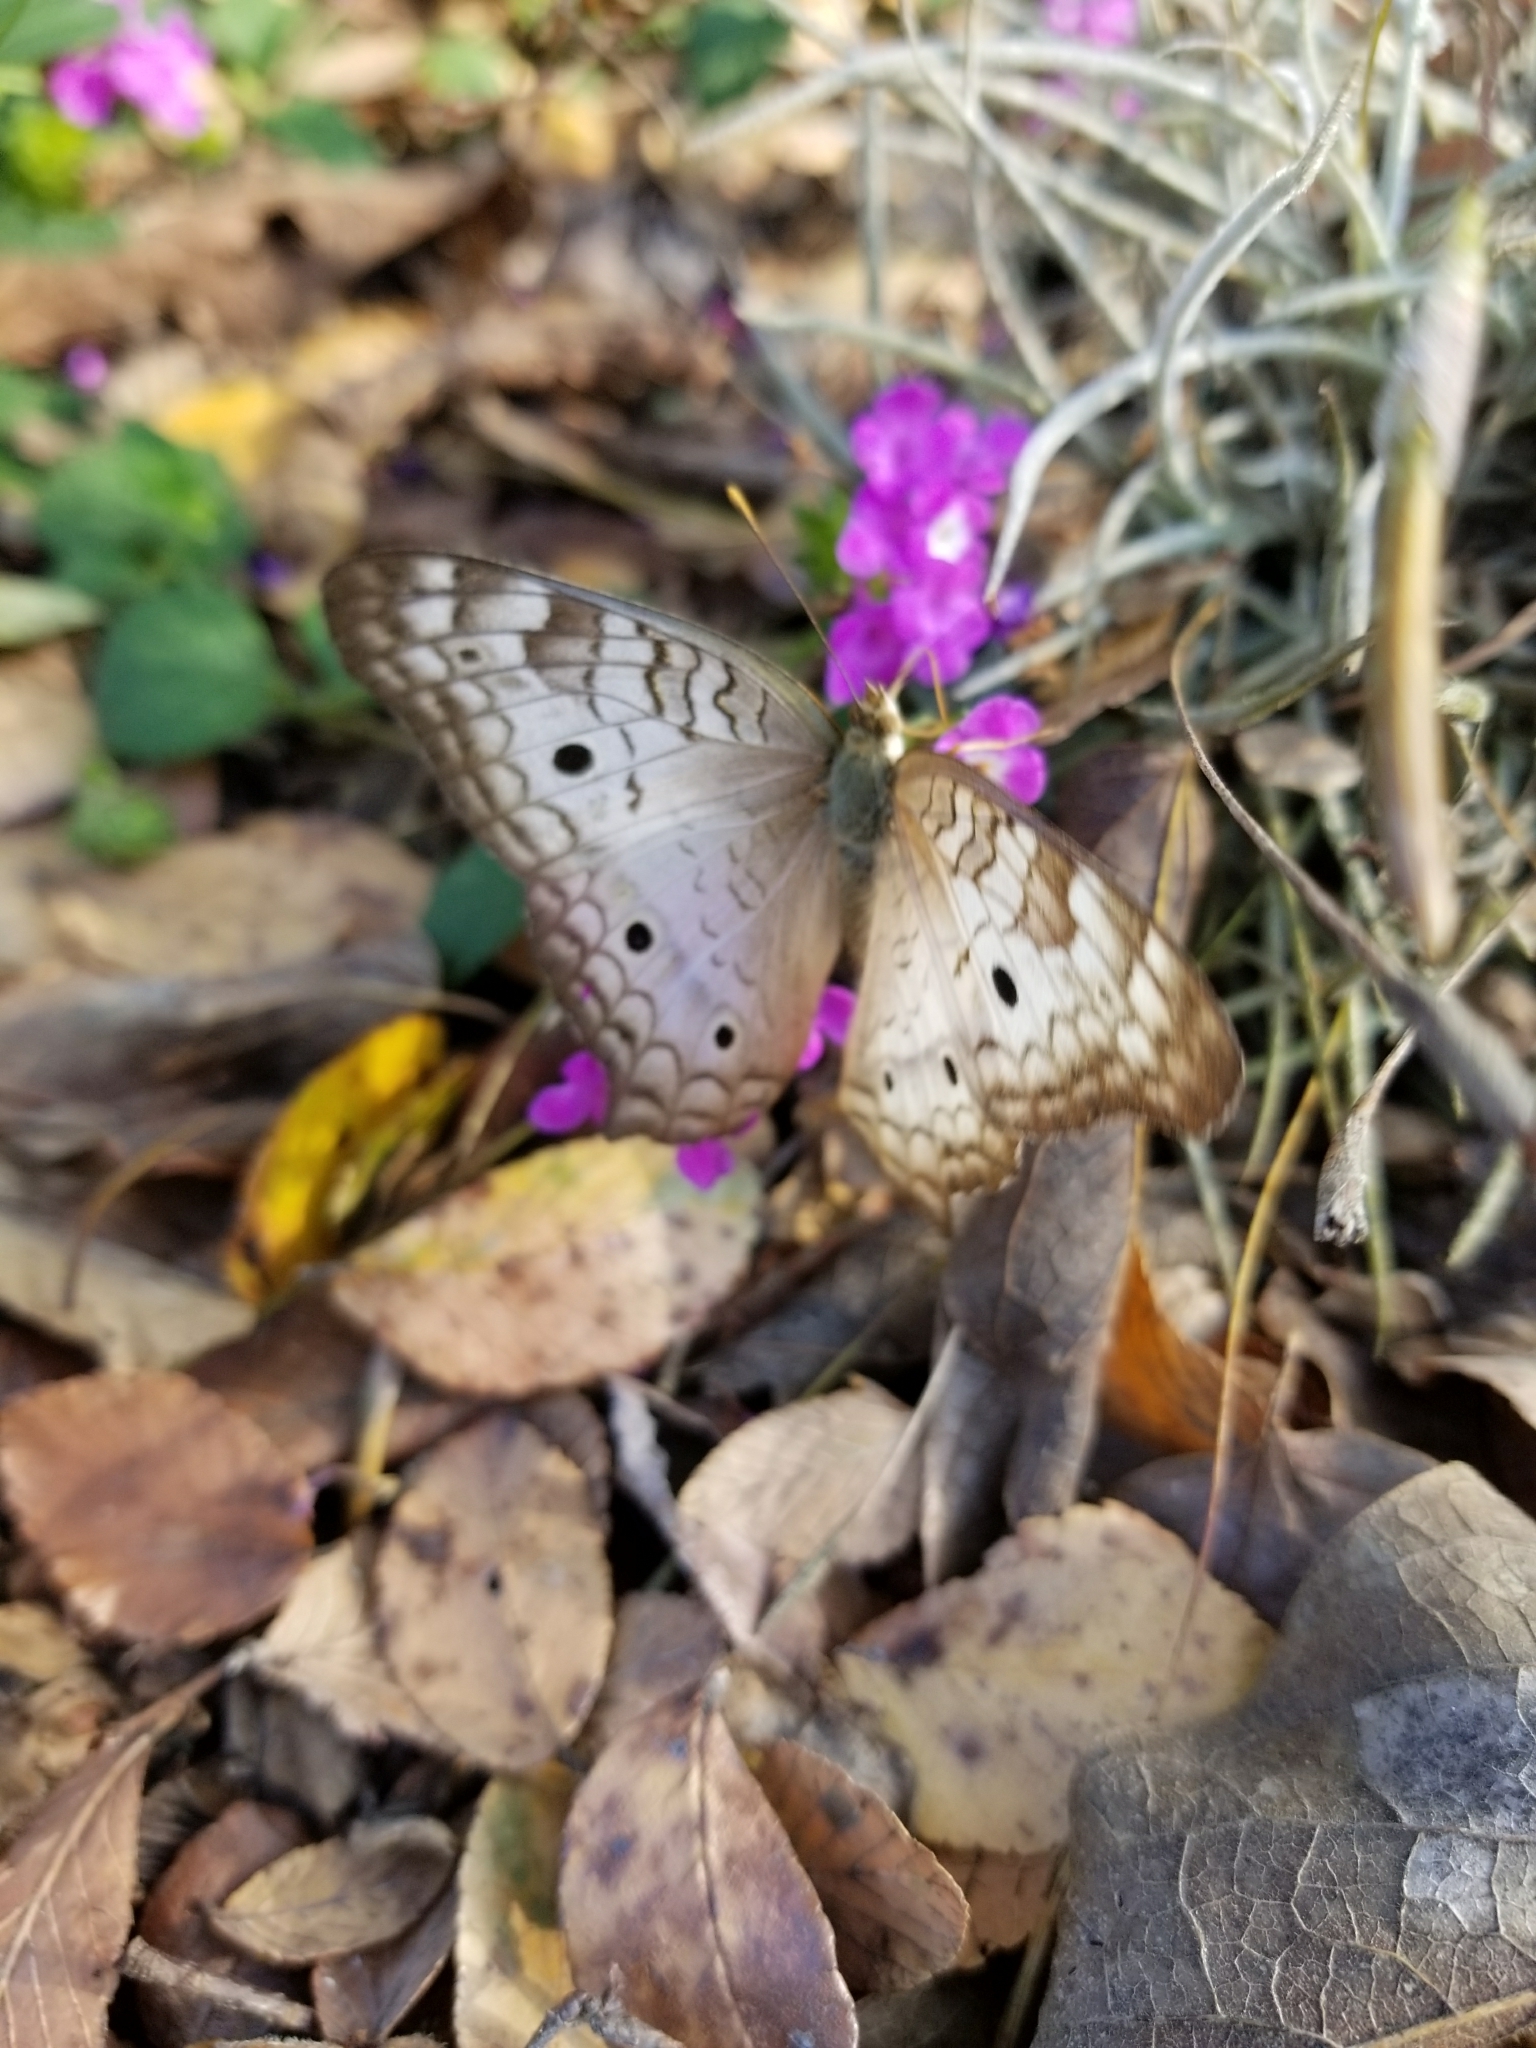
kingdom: Animalia
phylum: Arthropoda
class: Insecta
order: Lepidoptera
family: Nymphalidae
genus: Anartia
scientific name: Anartia jatrophae
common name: White peacock
